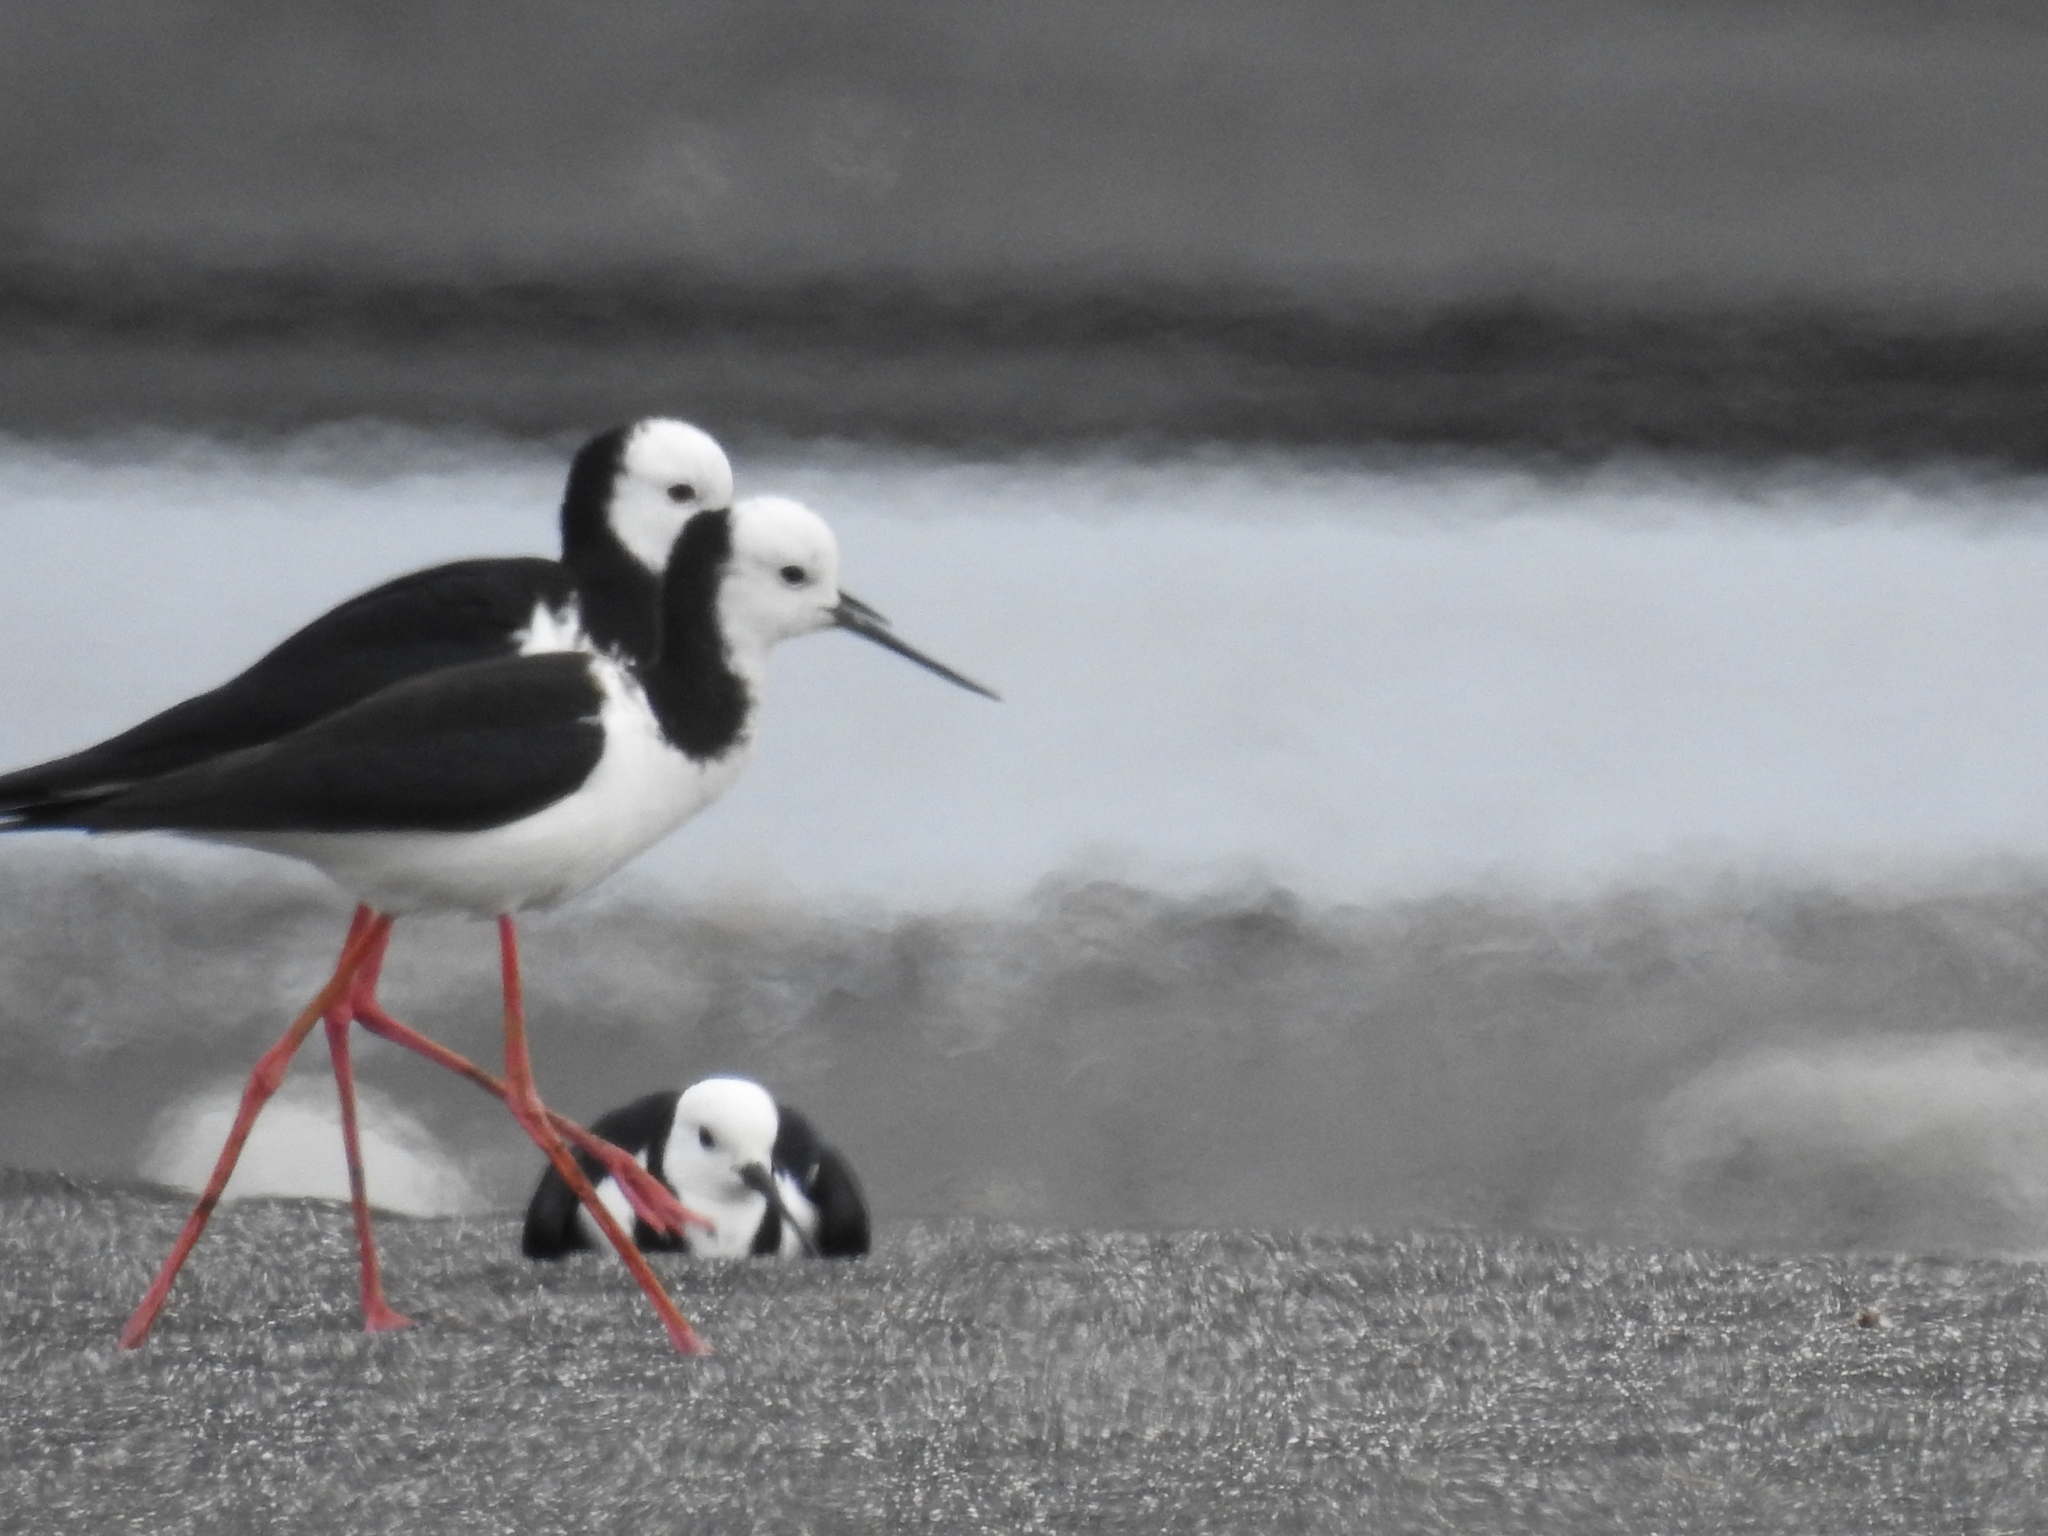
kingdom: Animalia
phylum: Chordata
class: Aves
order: Charadriiformes
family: Recurvirostridae
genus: Himantopus
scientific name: Himantopus leucocephalus
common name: White-headed stilt
